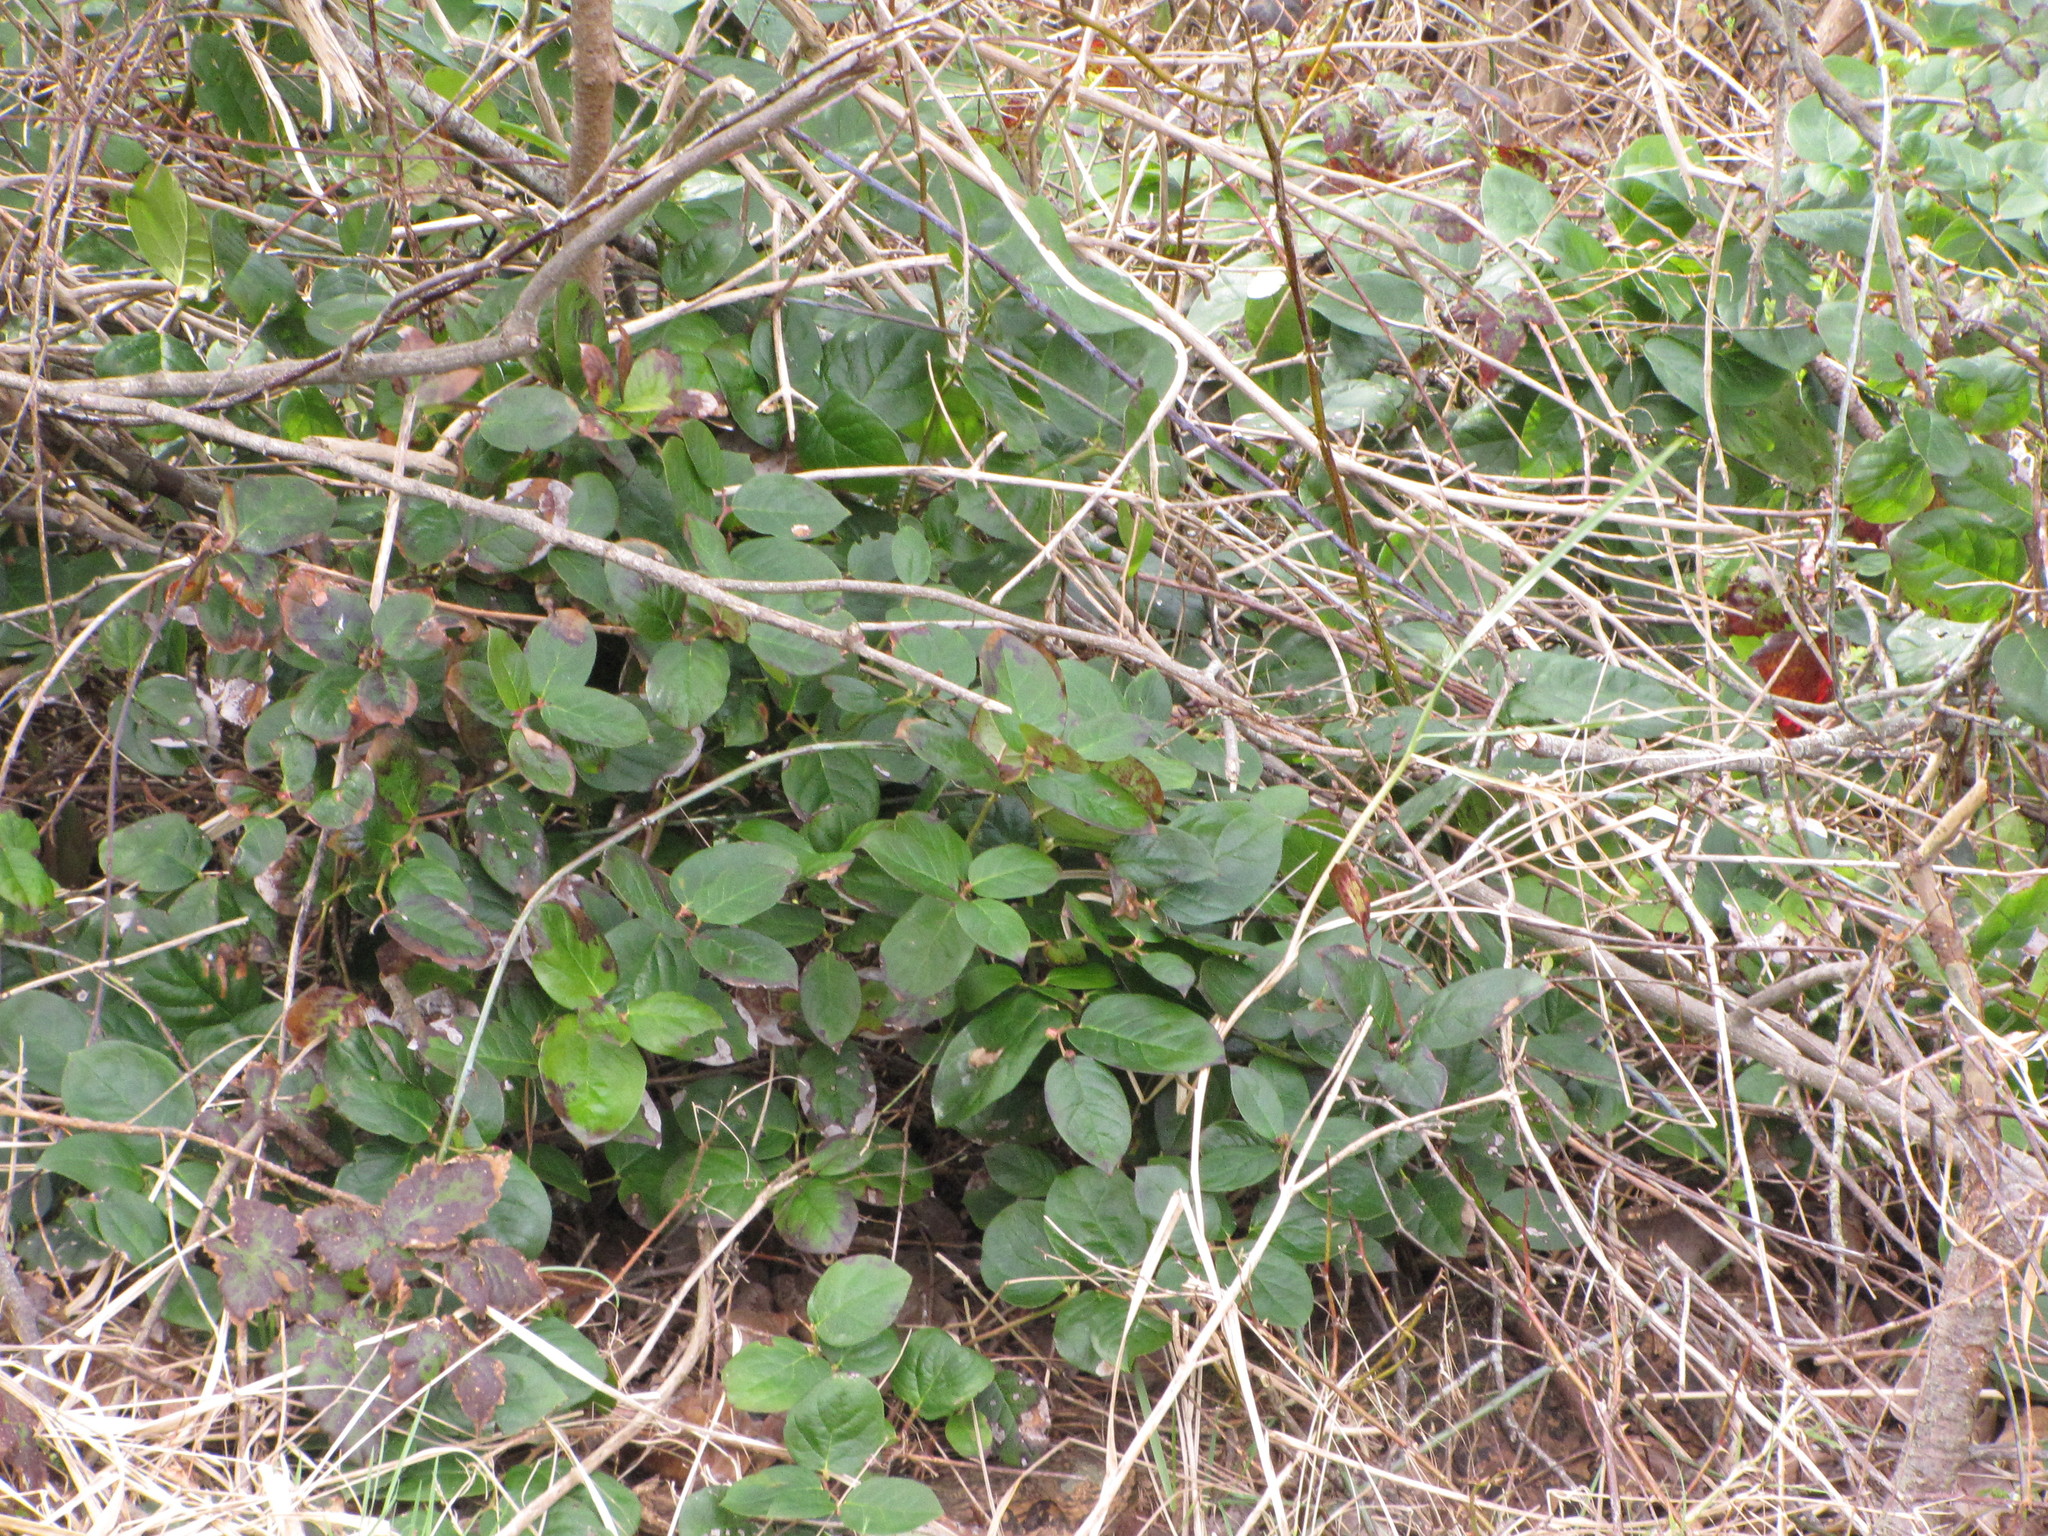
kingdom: Plantae
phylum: Tracheophyta
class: Magnoliopsida
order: Ericales
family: Ericaceae
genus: Gaultheria
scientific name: Gaultheria shallon
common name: Shallon
